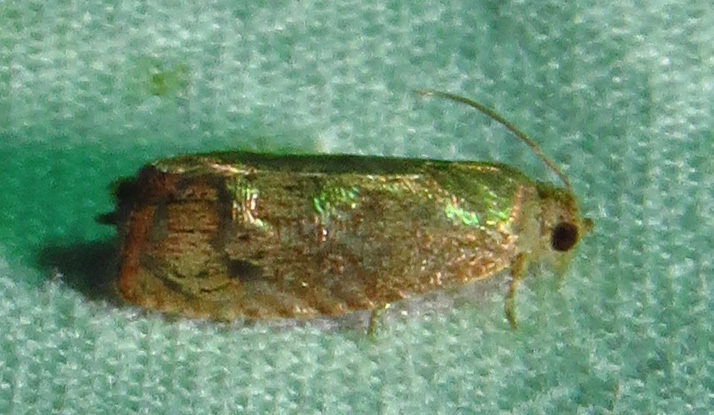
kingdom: Animalia
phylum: Arthropoda
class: Insecta
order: Lepidoptera
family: Tortricidae
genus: Cydia
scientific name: Cydia latiferreana
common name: Filbertworm moth
